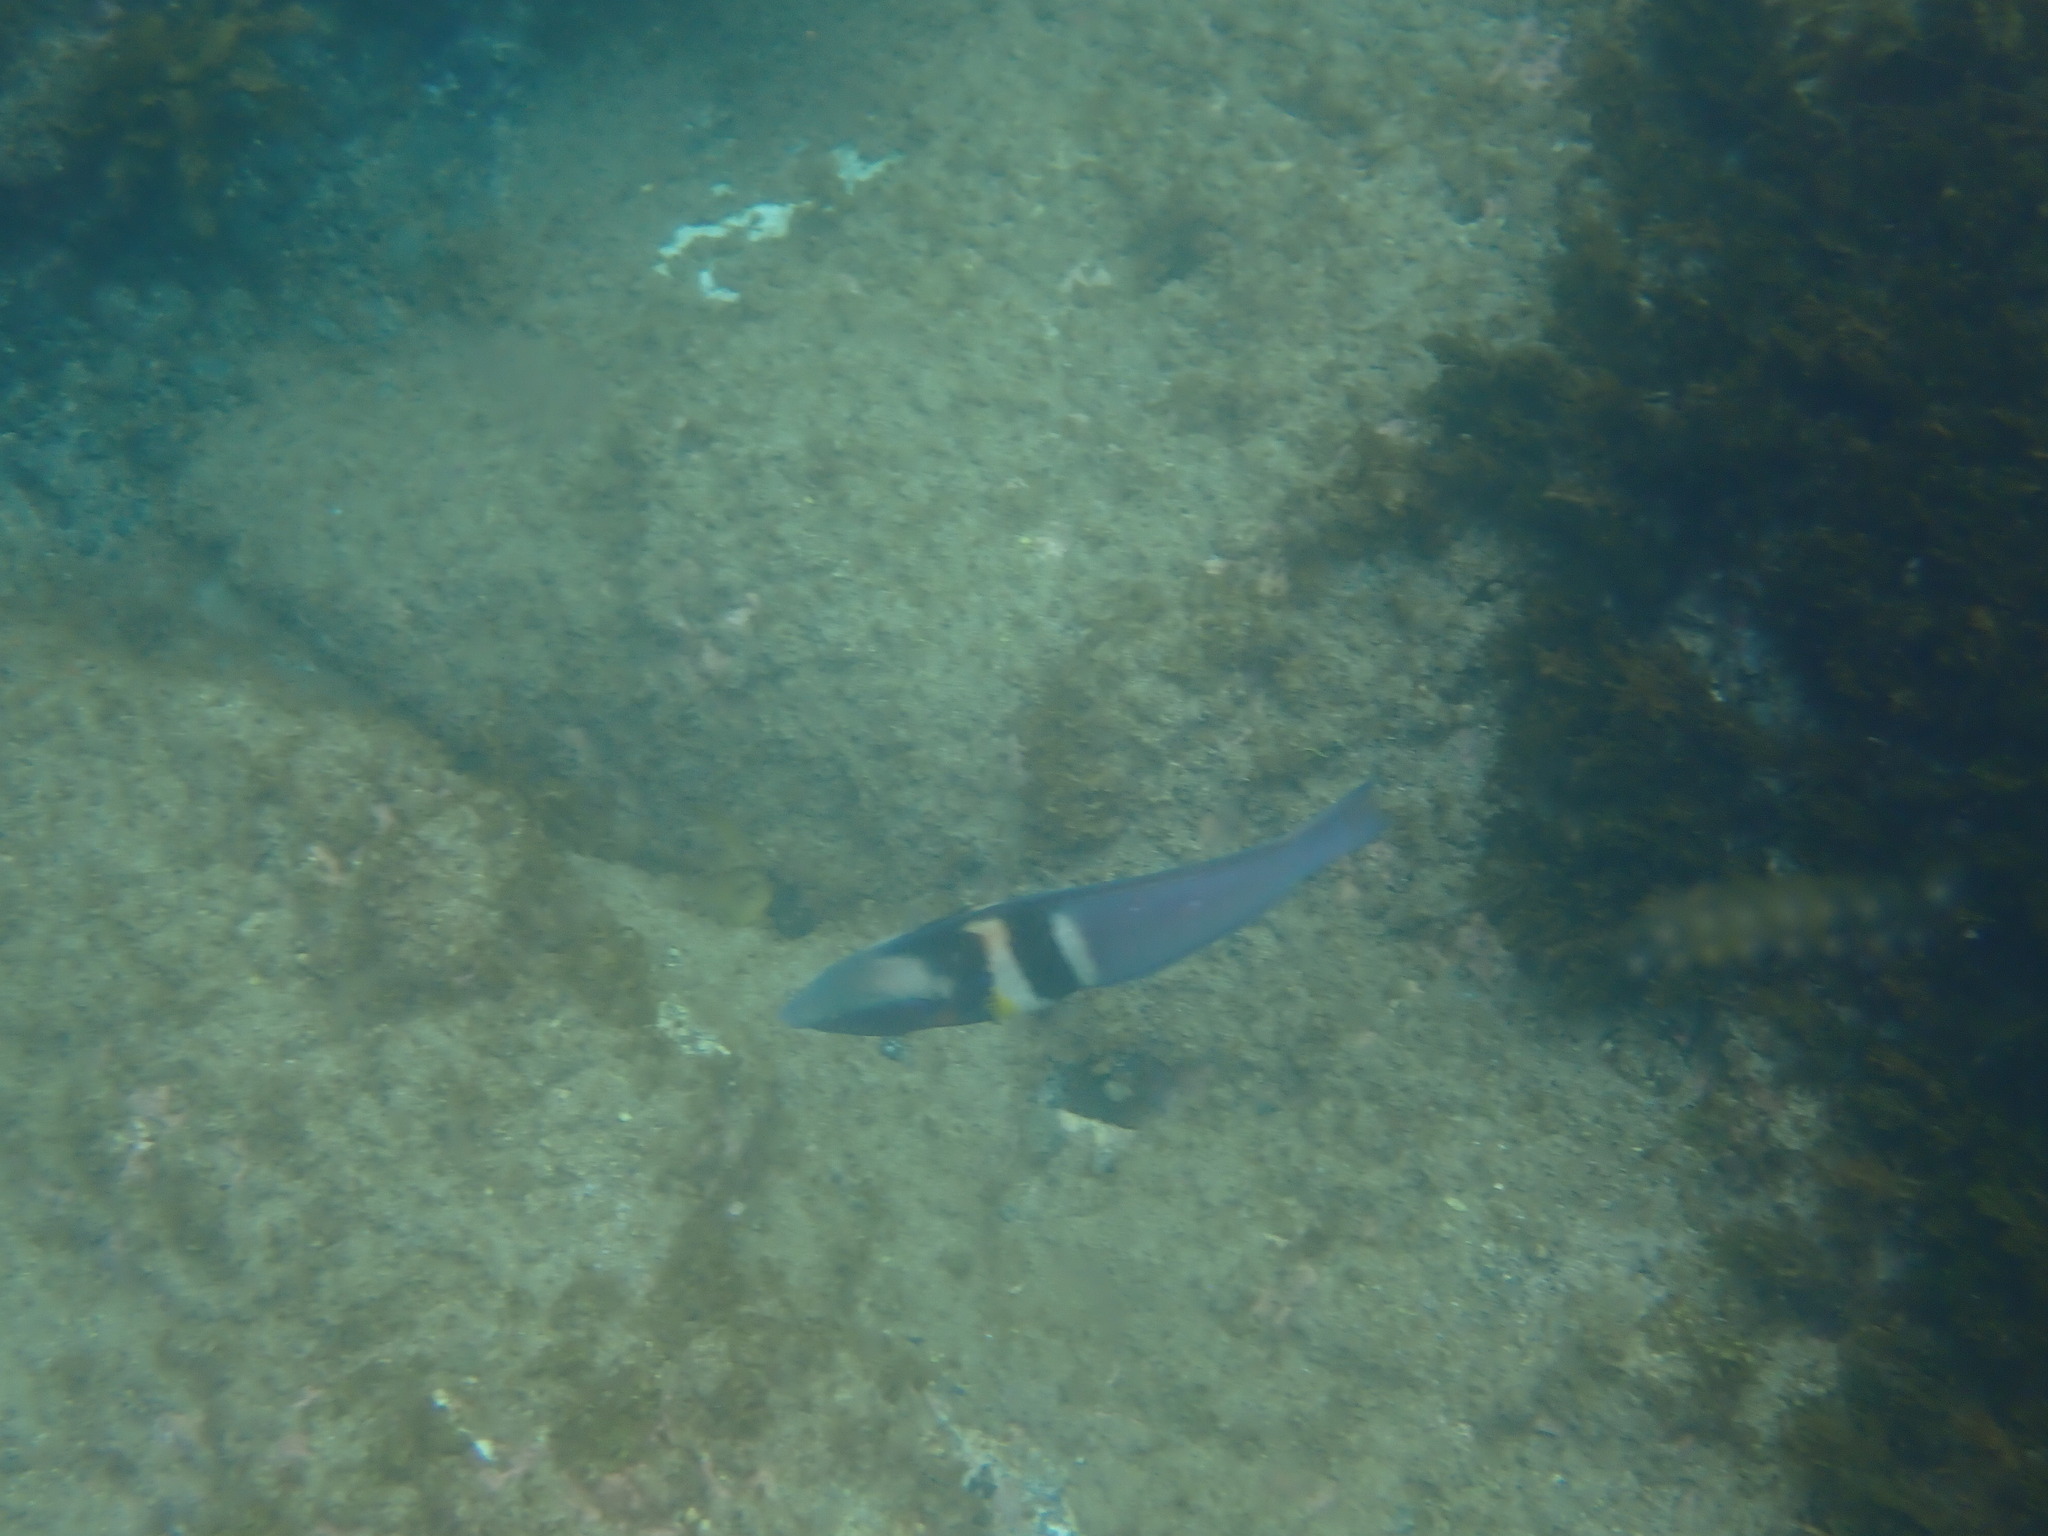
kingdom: Animalia
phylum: Chordata
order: Perciformes
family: Labridae
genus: Coris
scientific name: Coris sandeyeri
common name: Sandager's wrasse
